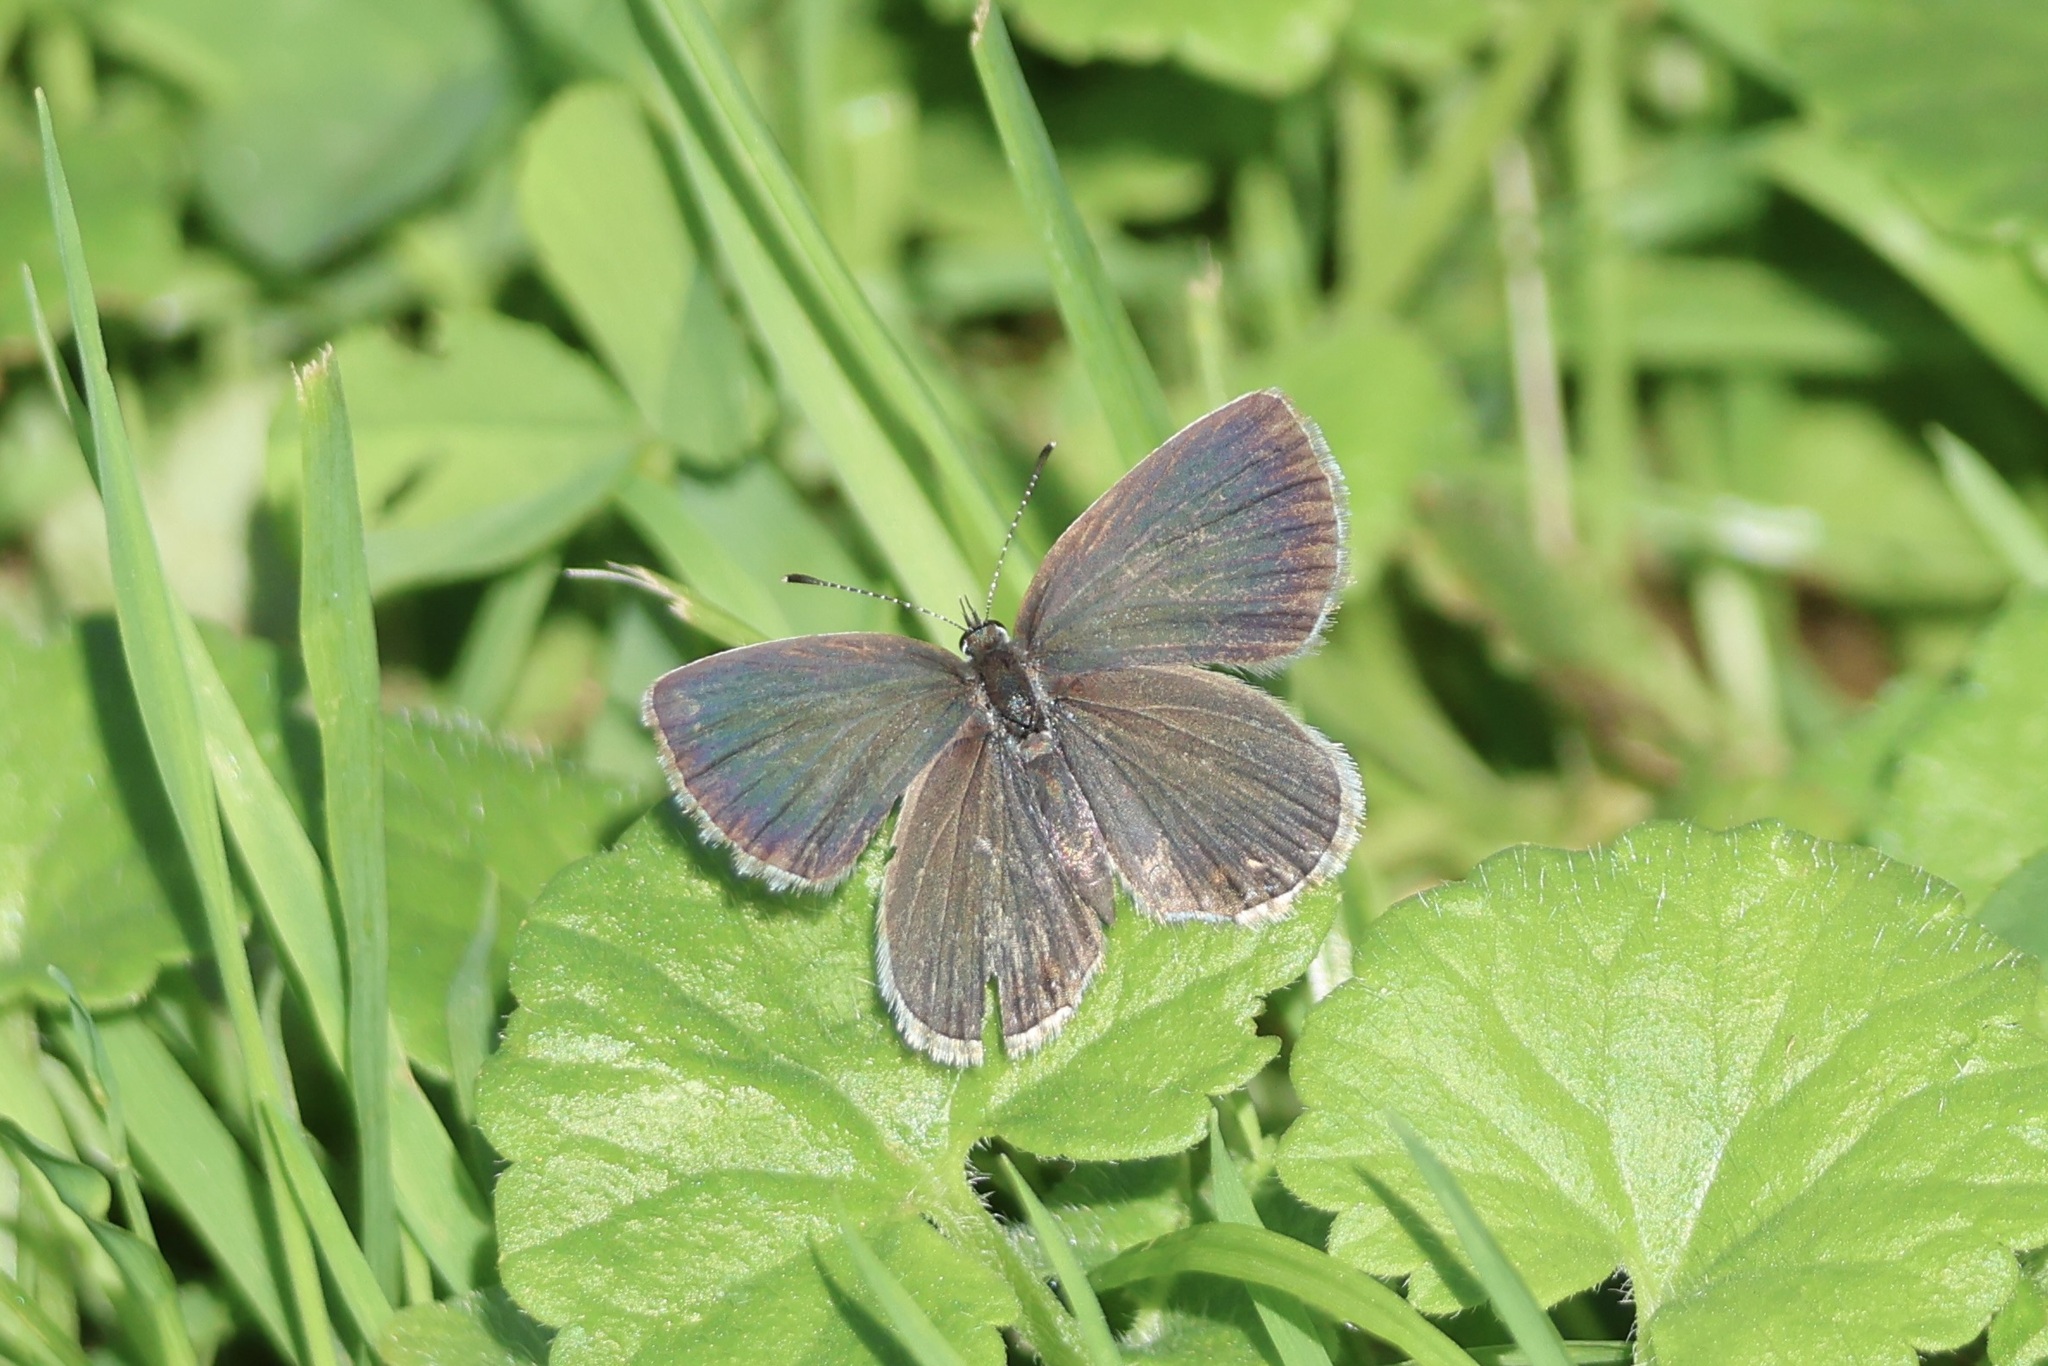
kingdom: Animalia
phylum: Arthropoda
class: Insecta
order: Lepidoptera
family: Lycaenidae
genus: Elkalyce
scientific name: Elkalyce comyntas
